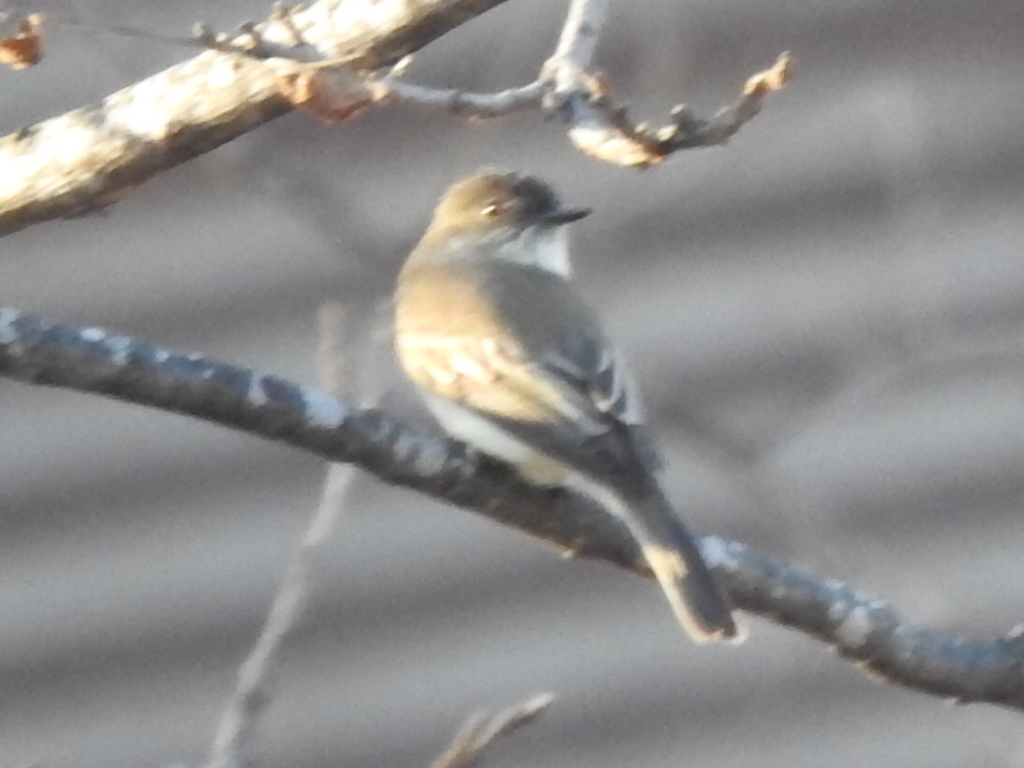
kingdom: Animalia
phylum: Chordata
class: Aves
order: Passeriformes
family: Tyrannidae
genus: Sayornis
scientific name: Sayornis phoebe
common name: Eastern phoebe
